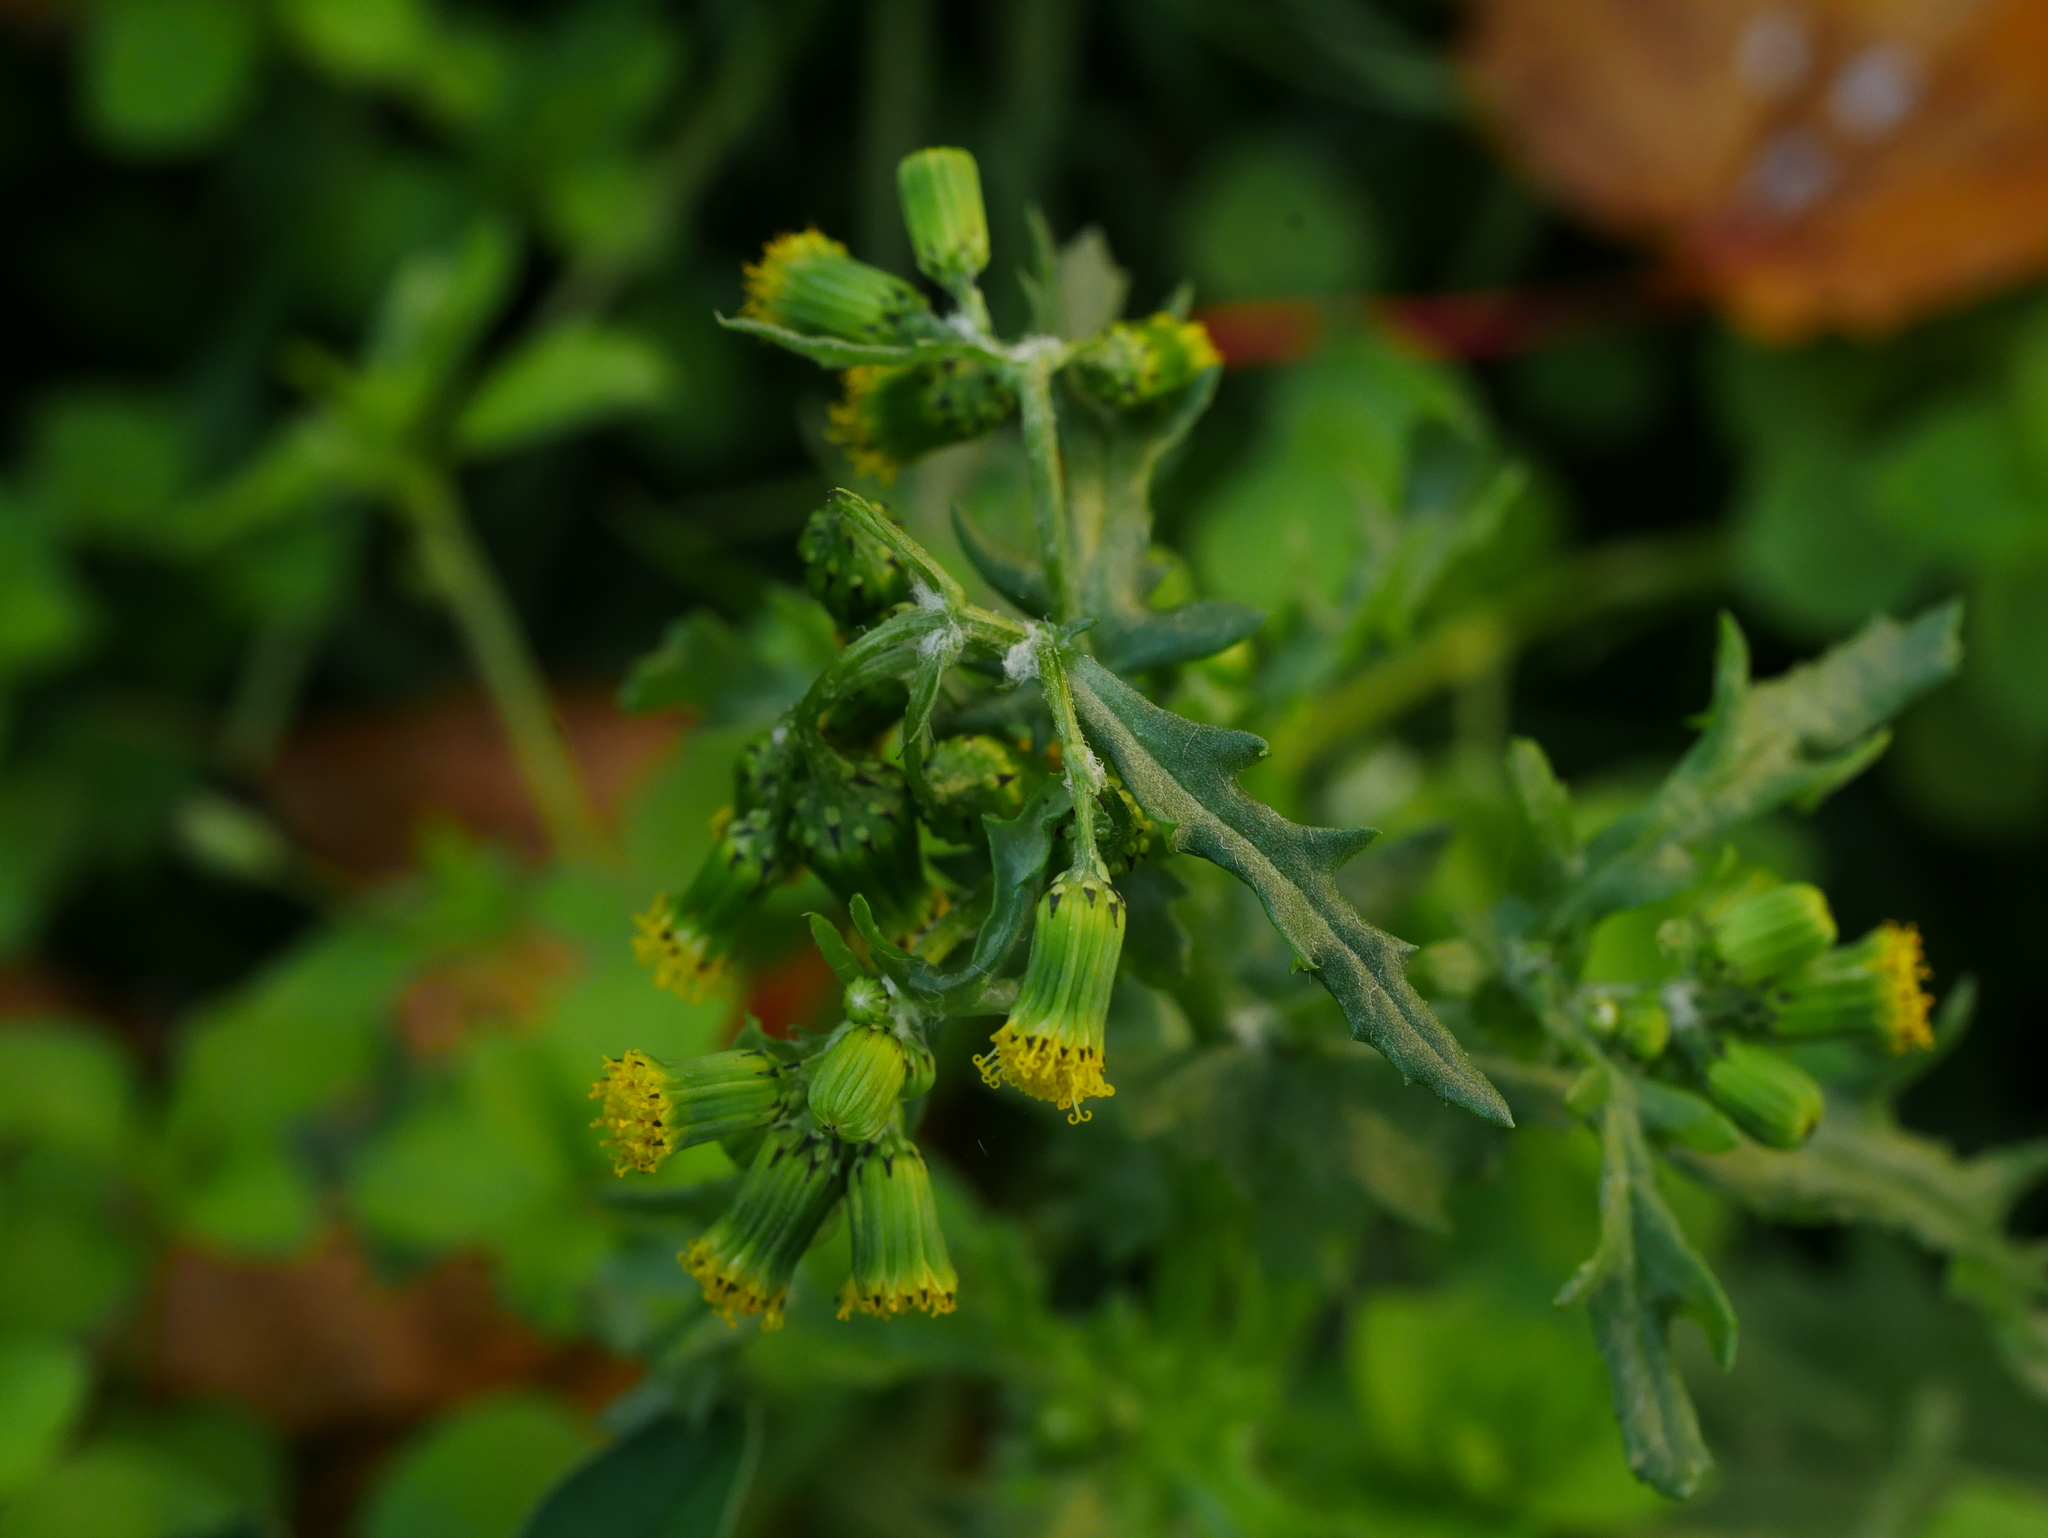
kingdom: Plantae
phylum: Tracheophyta
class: Magnoliopsida
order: Asterales
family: Asteraceae
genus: Senecio
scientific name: Senecio vulgaris
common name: Old-man-in-the-spring
